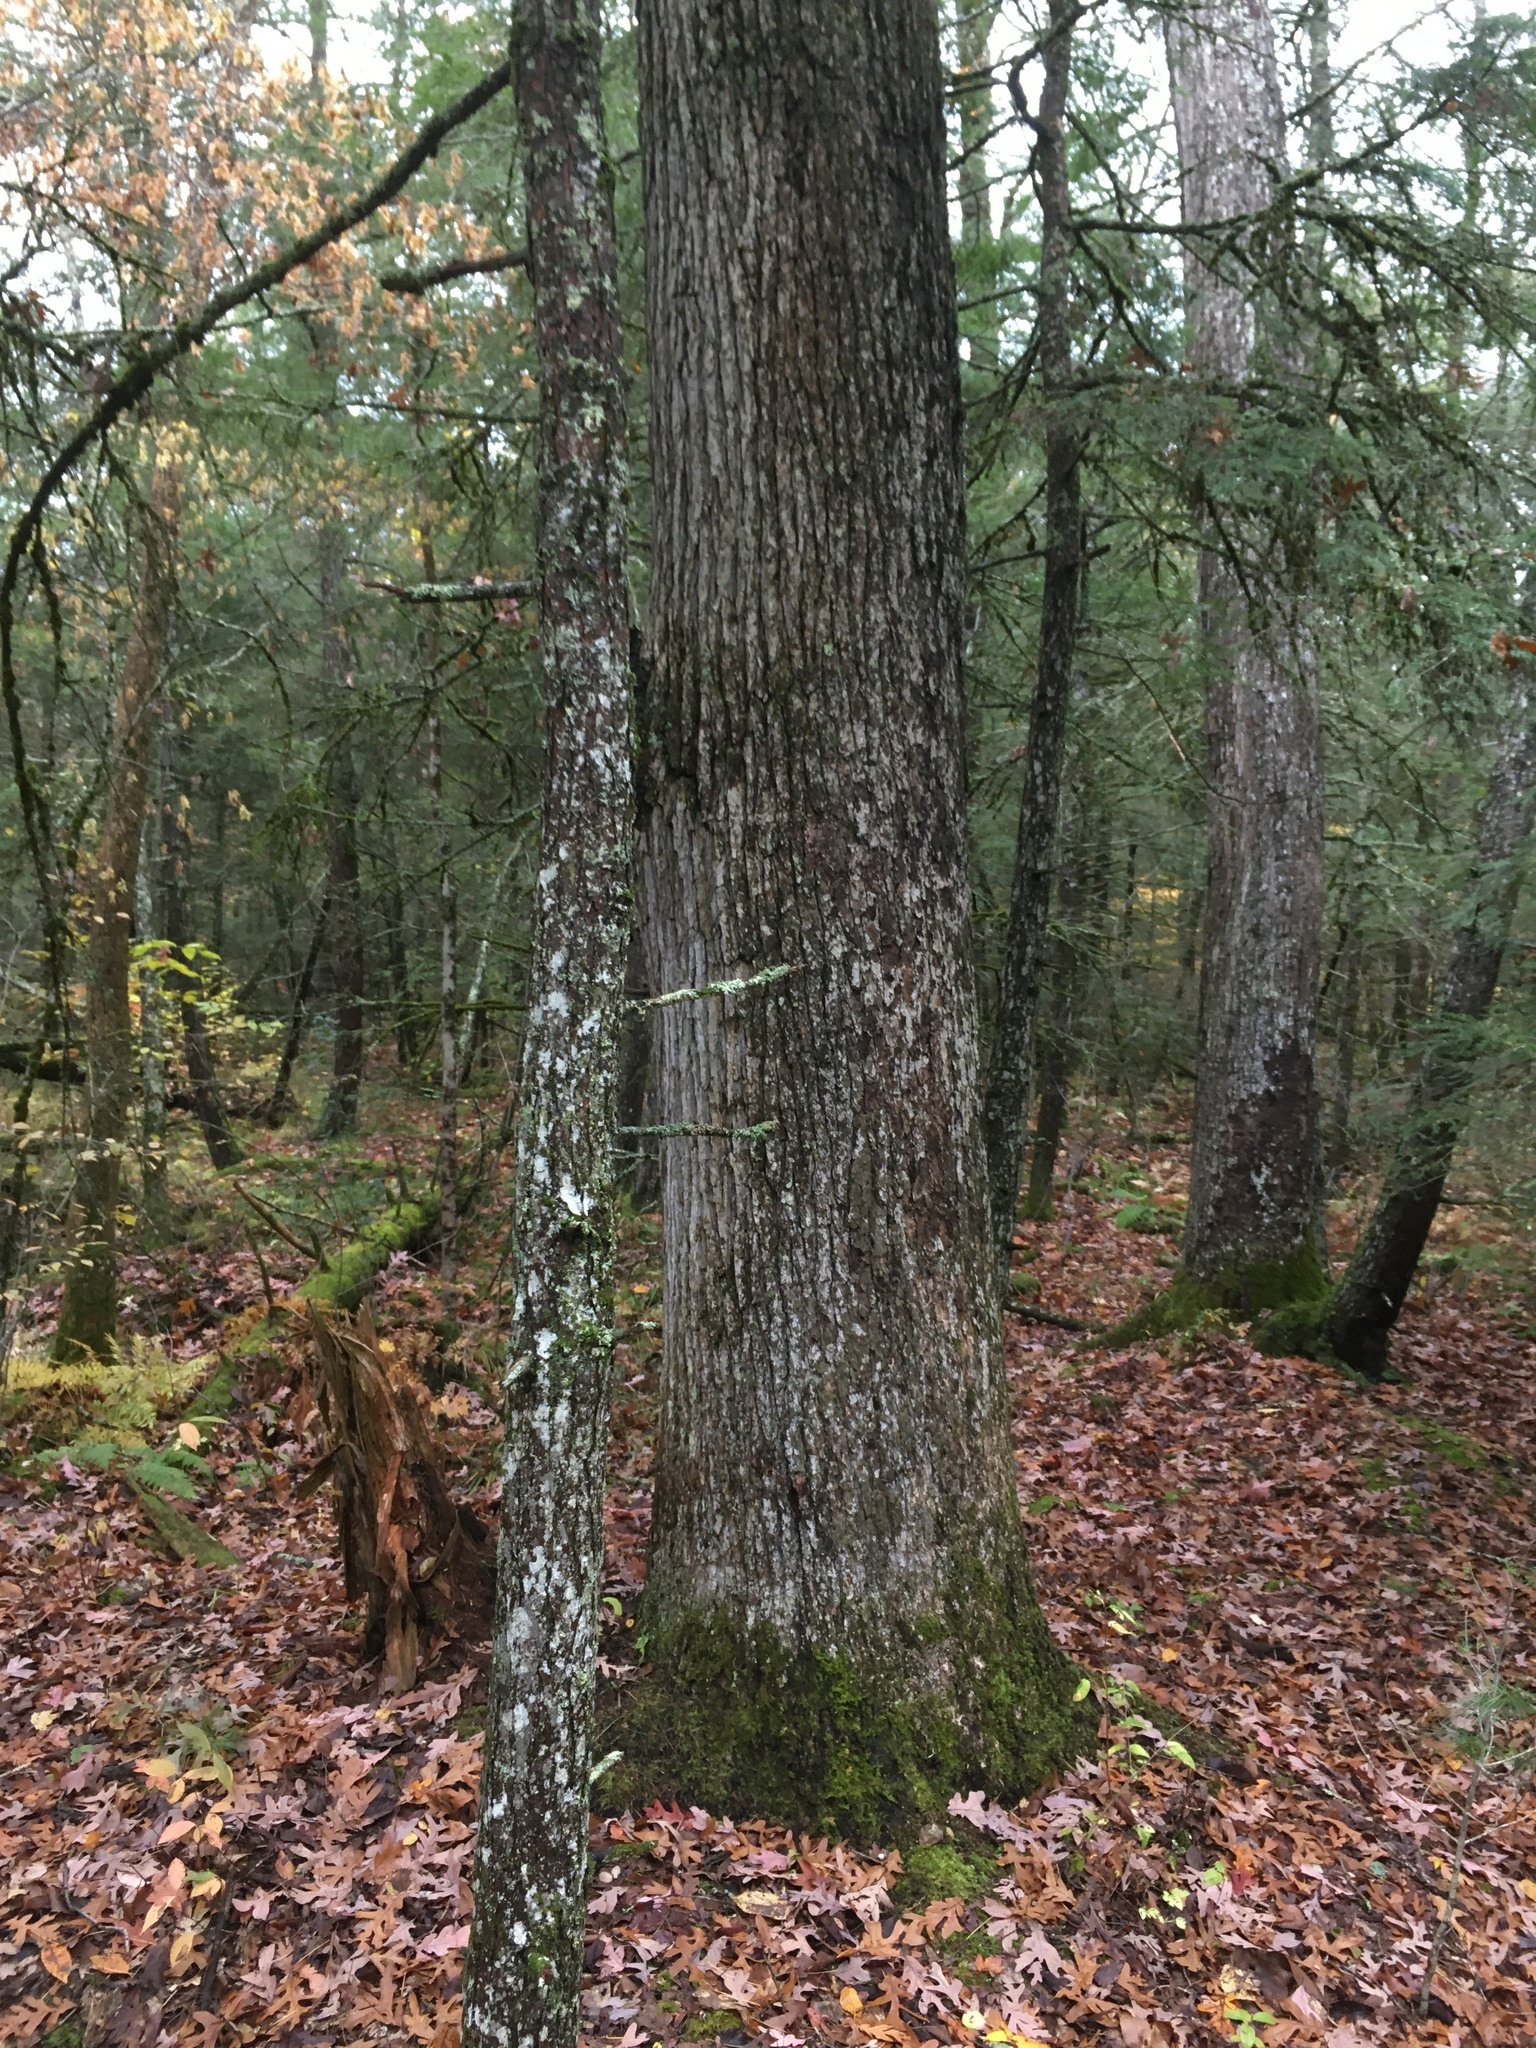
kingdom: Plantae
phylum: Tracheophyta
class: Magnoliopsida
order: Fagales
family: Fagaceae
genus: Quercus
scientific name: Quercus alba
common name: White oak
